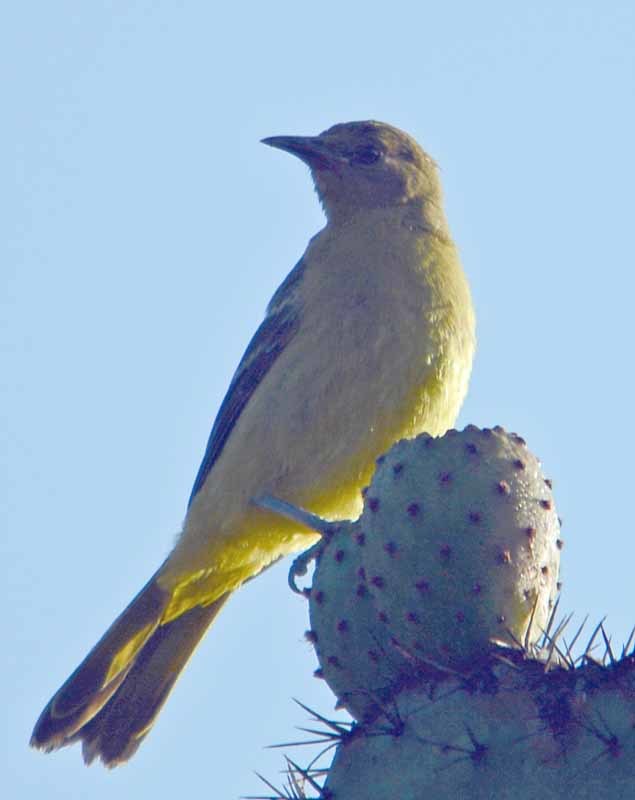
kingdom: Animalia
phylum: Chordata
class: Aves
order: Passeriformes
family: Icteridae
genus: Icterus
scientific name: Icterus parisorum
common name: Scott's oriole
